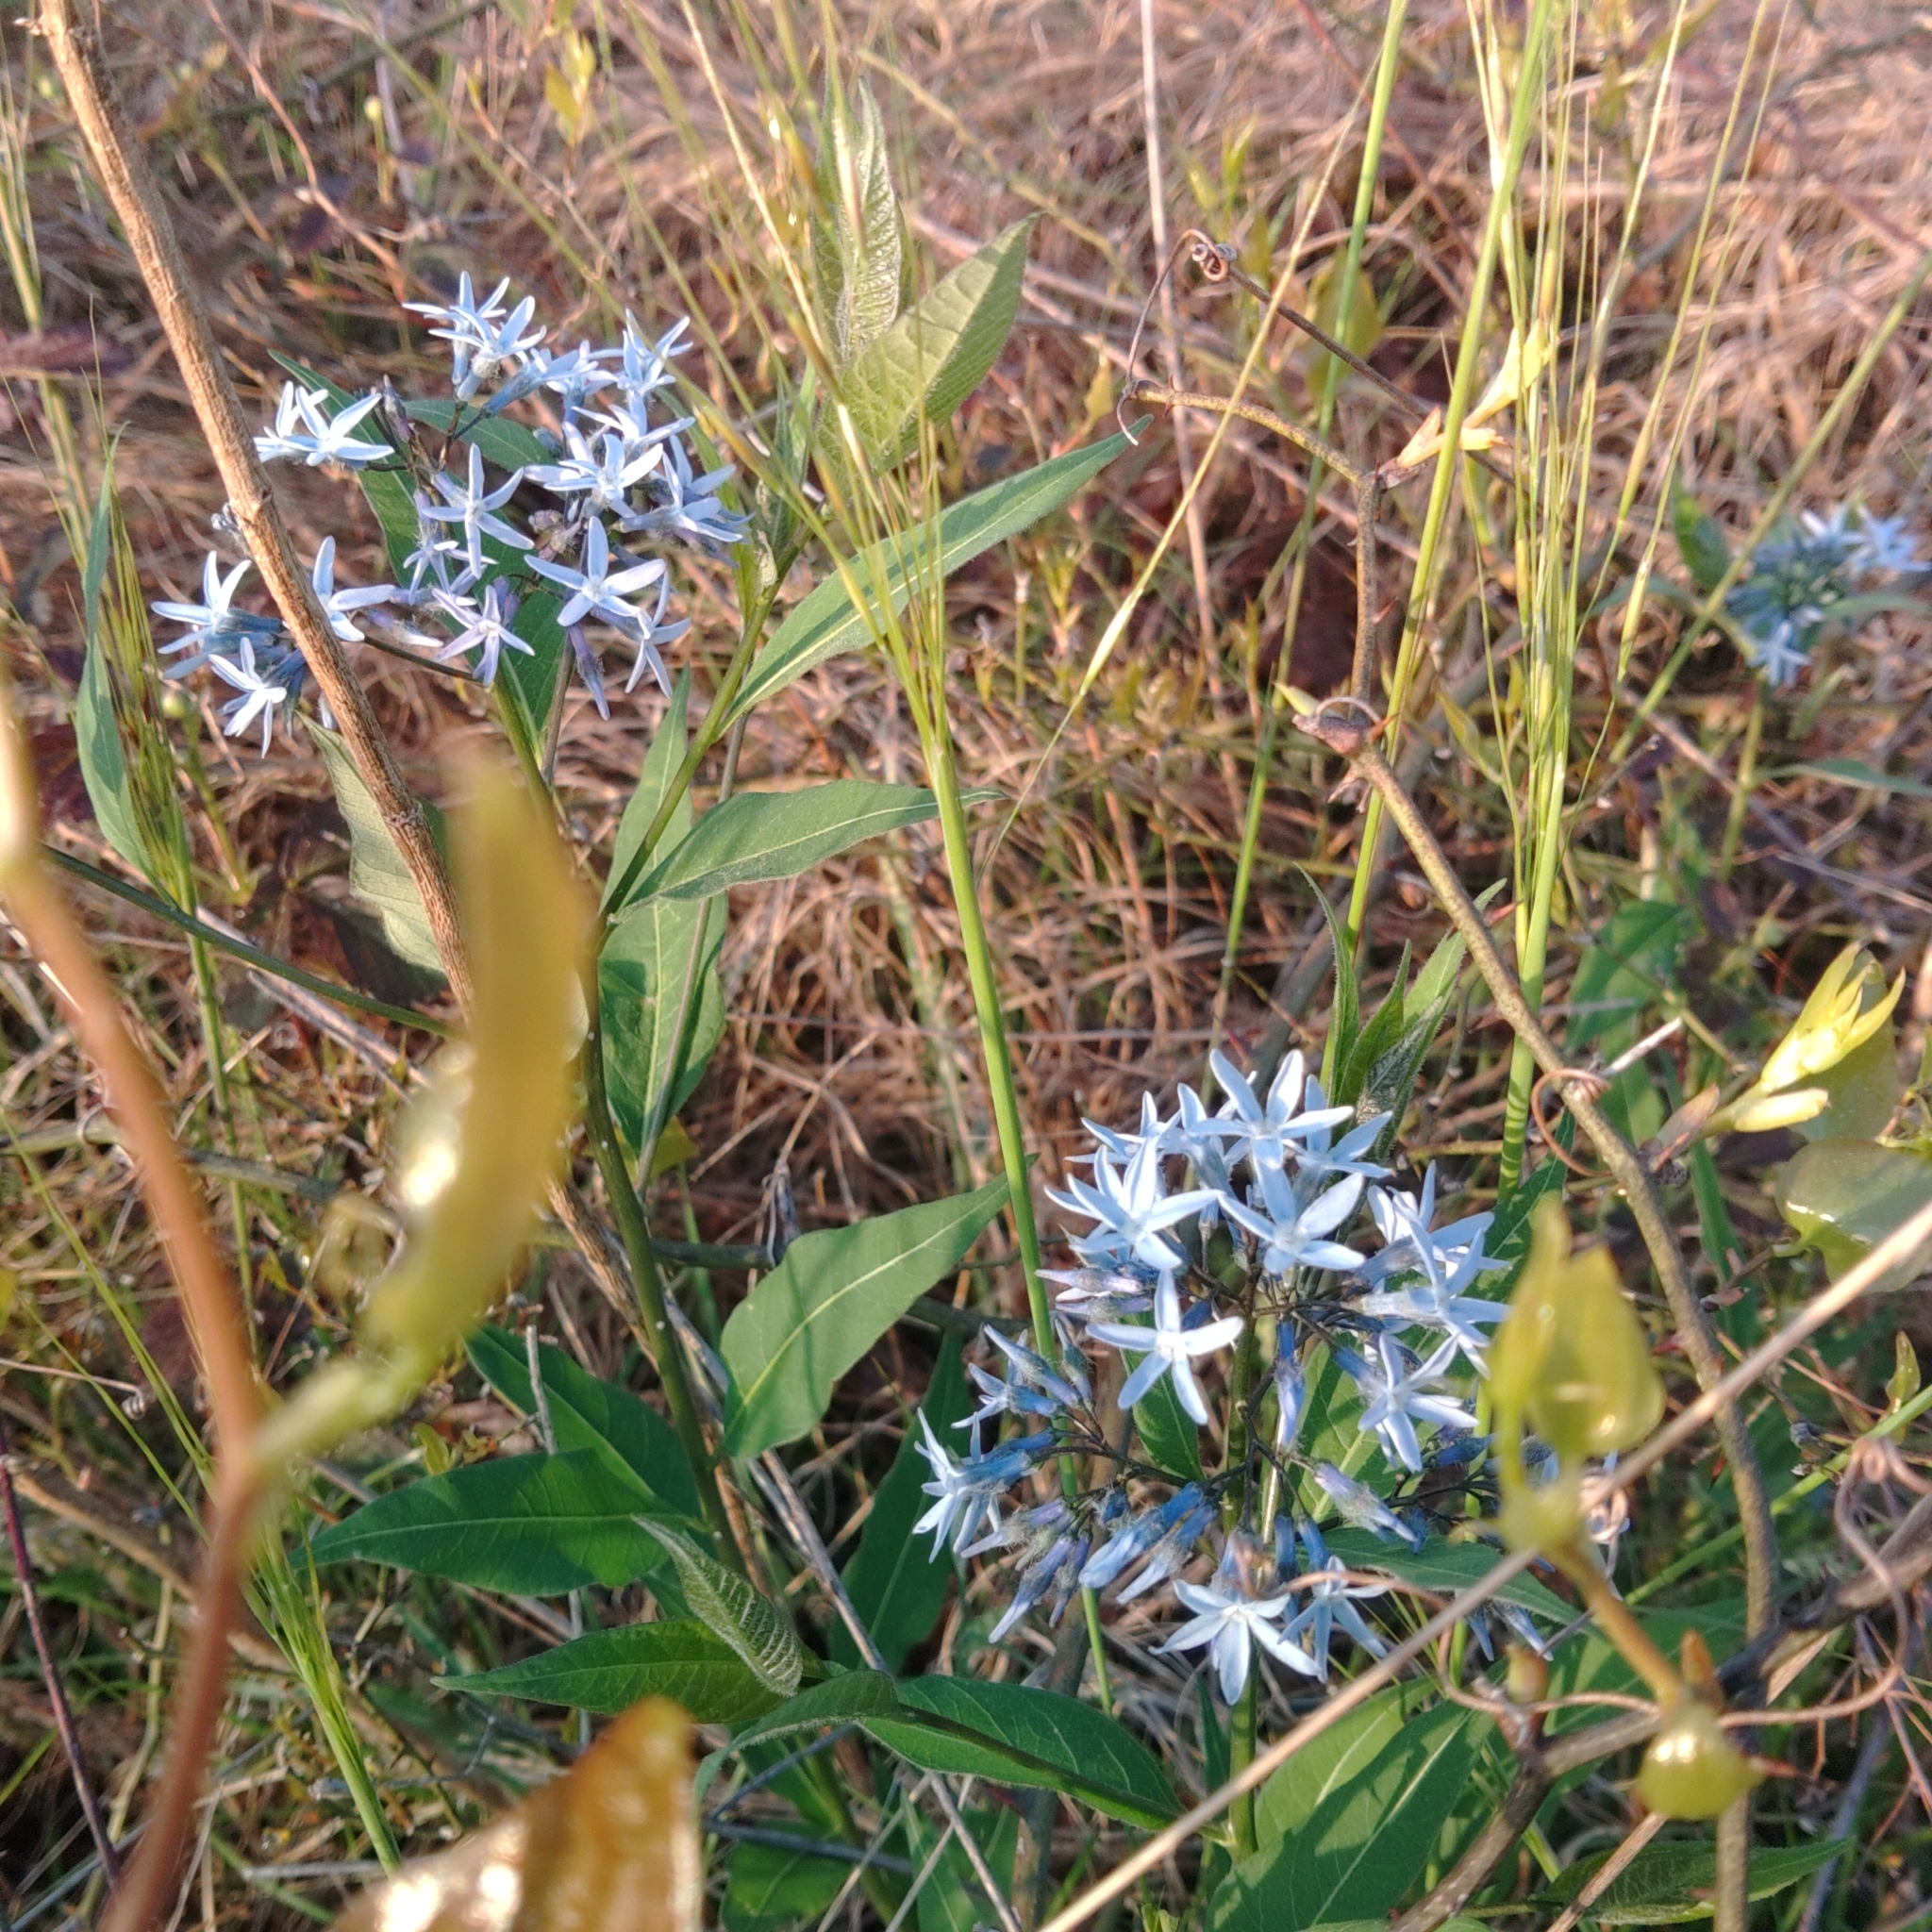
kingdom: Plantae
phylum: Tracheophyta
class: Magnoliopsida
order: Gentianales
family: Apocynaceae
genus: Amsonia
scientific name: Amsonia tabernaemontana
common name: Texas-star
